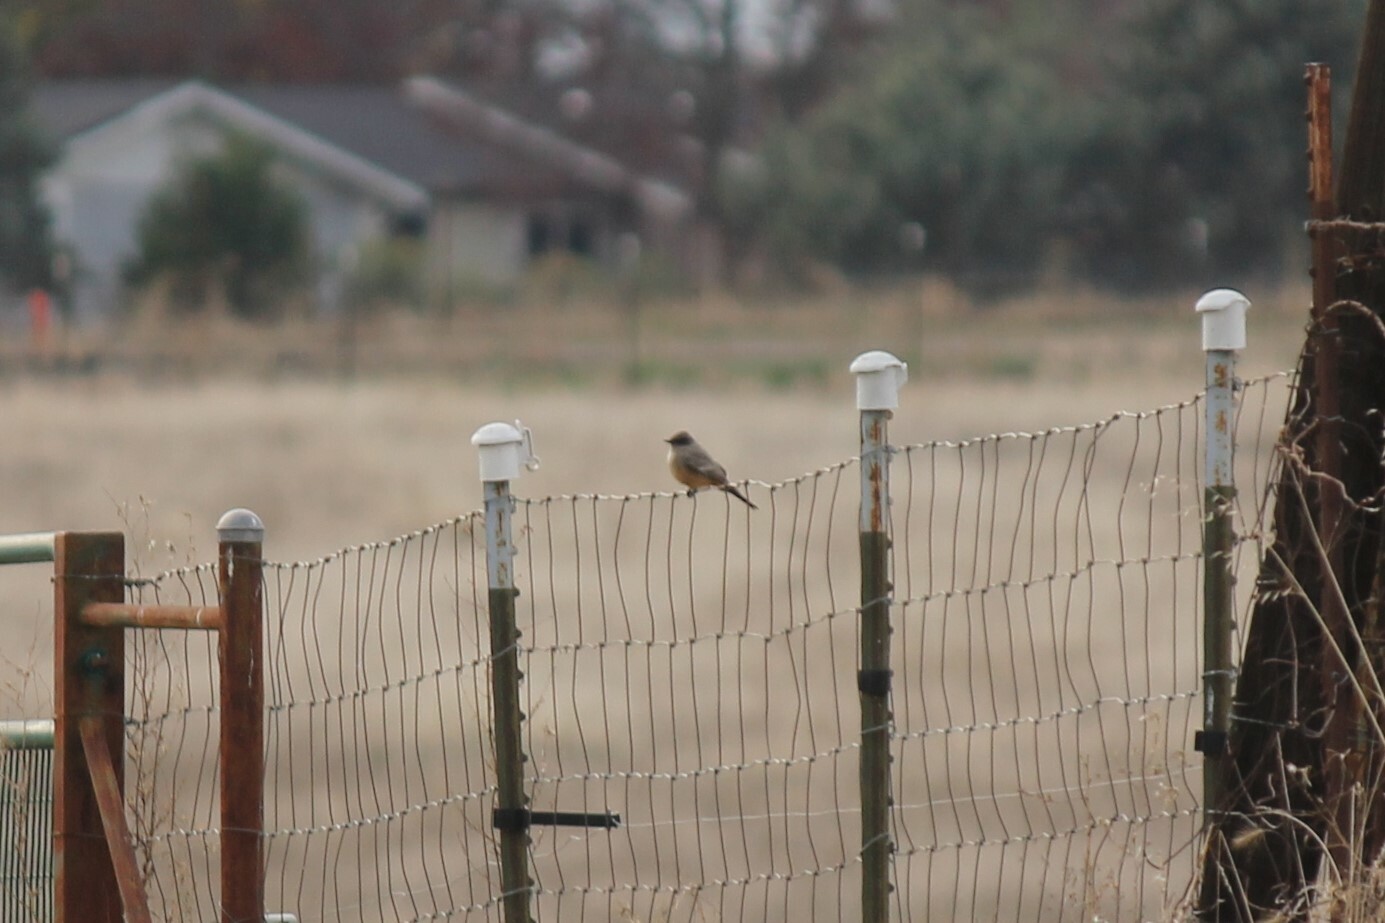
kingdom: Animalia
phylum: Chordata
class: Aves
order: Passeriformes
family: Tyrannidae
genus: Sayornis
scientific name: Sayornis saya
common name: Say's phoebe
